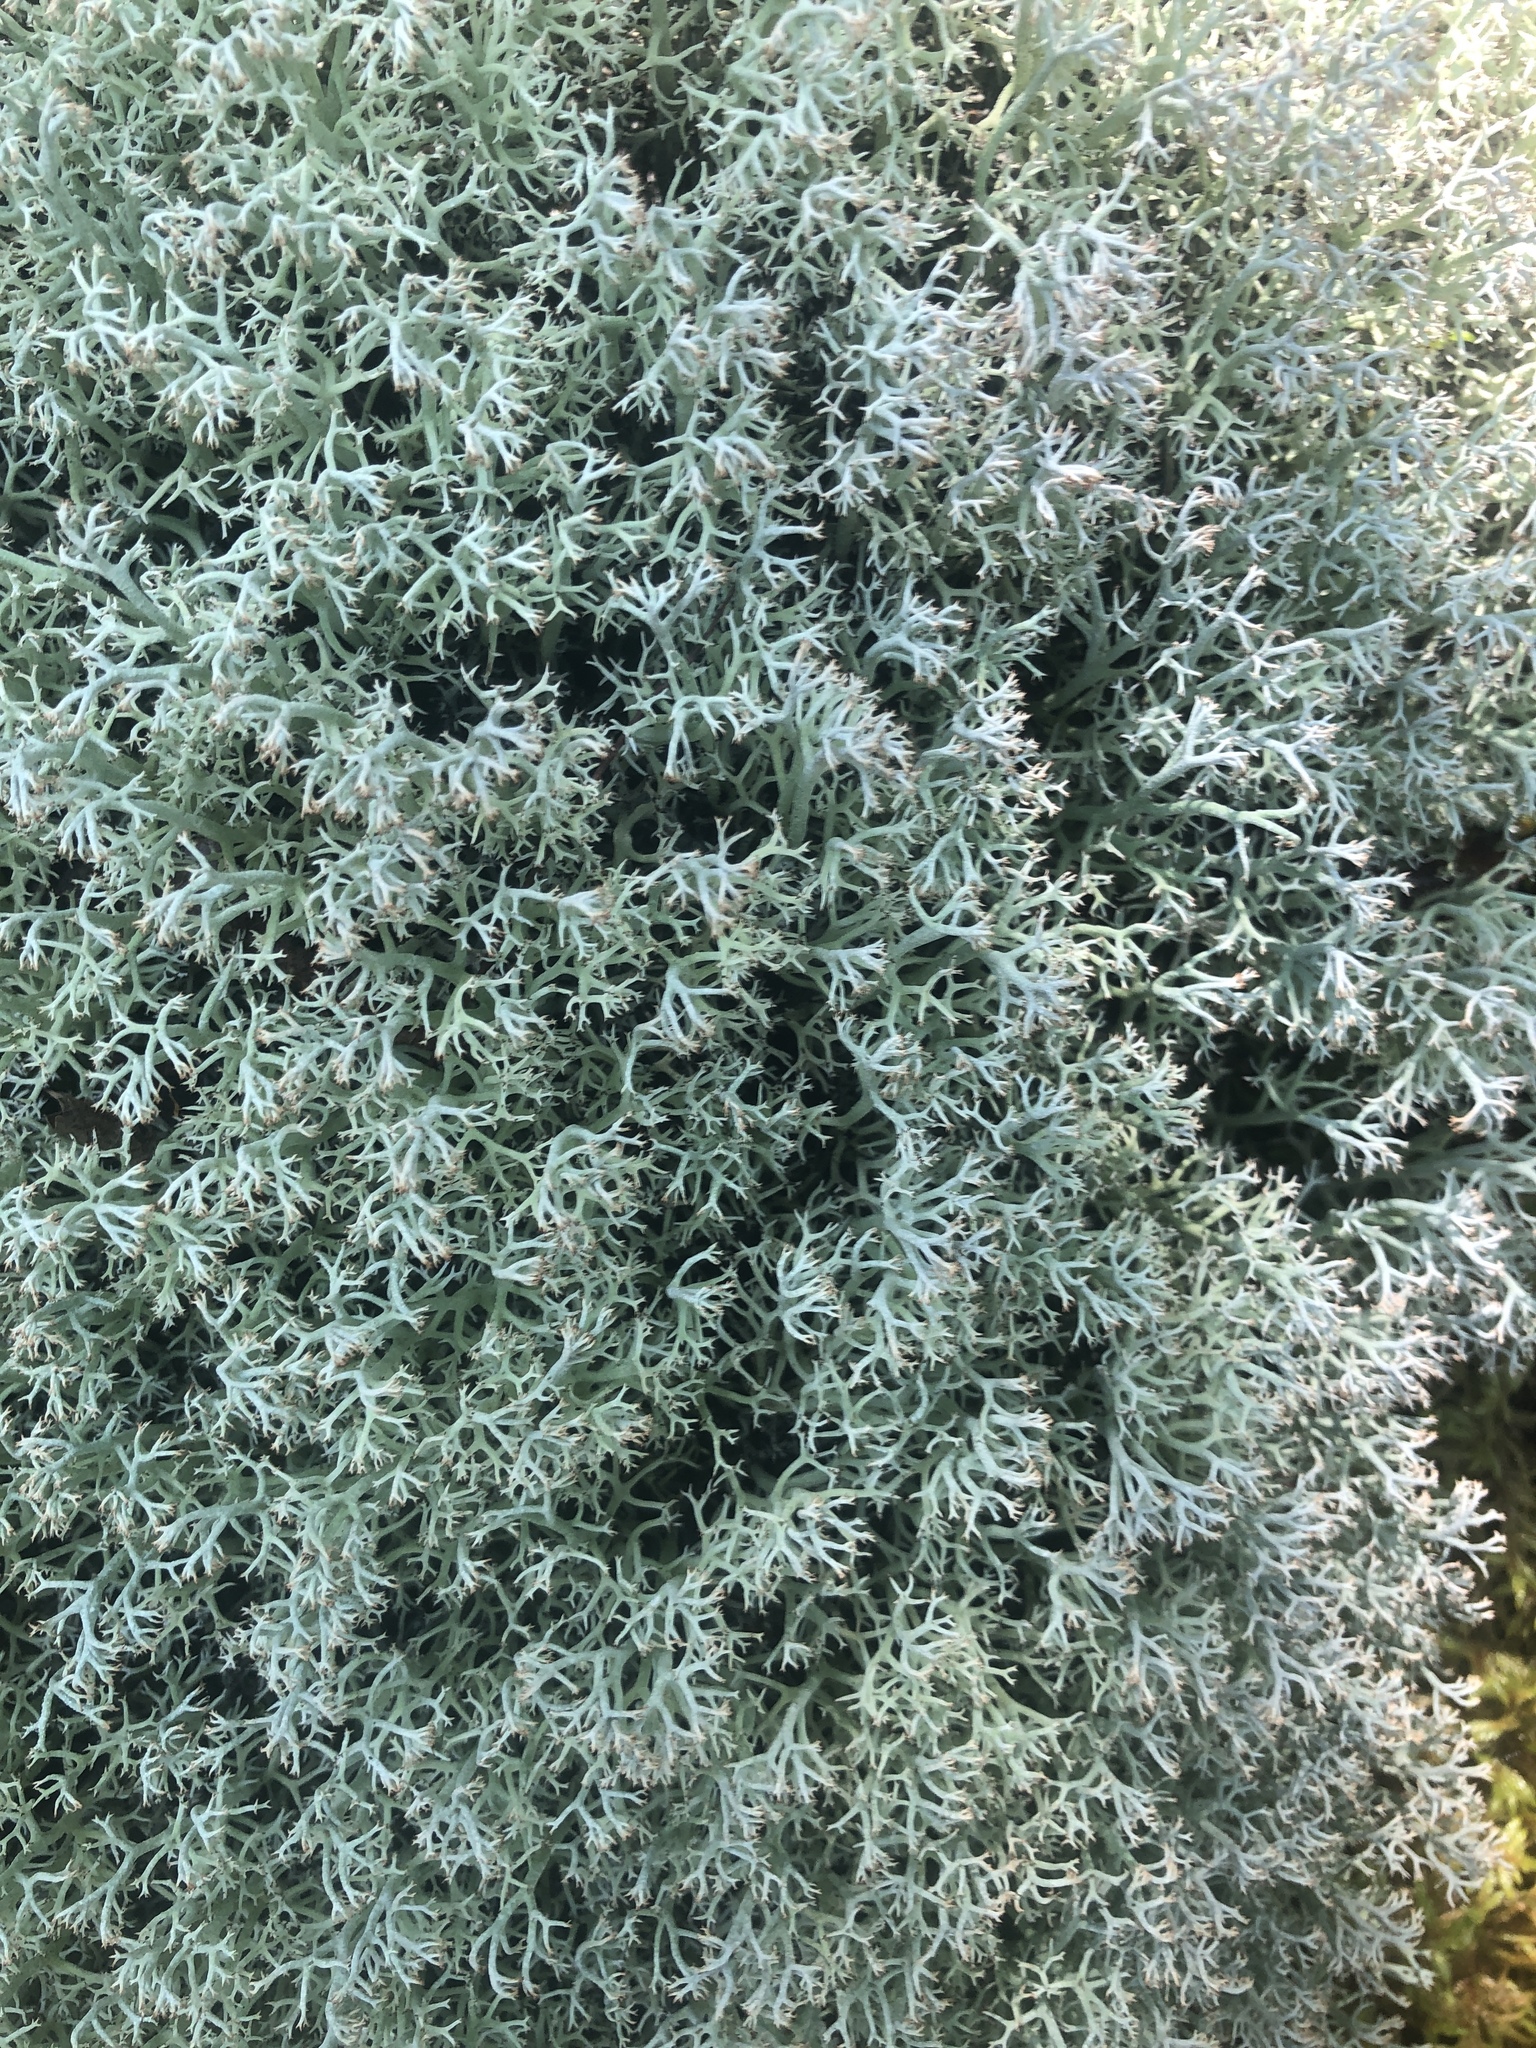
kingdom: Fungi
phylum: Ascomycota
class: Lecanoromycetes
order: Lecanorales
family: Cladoniaceae
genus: Cladonia
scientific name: Cladonia rangiferina
